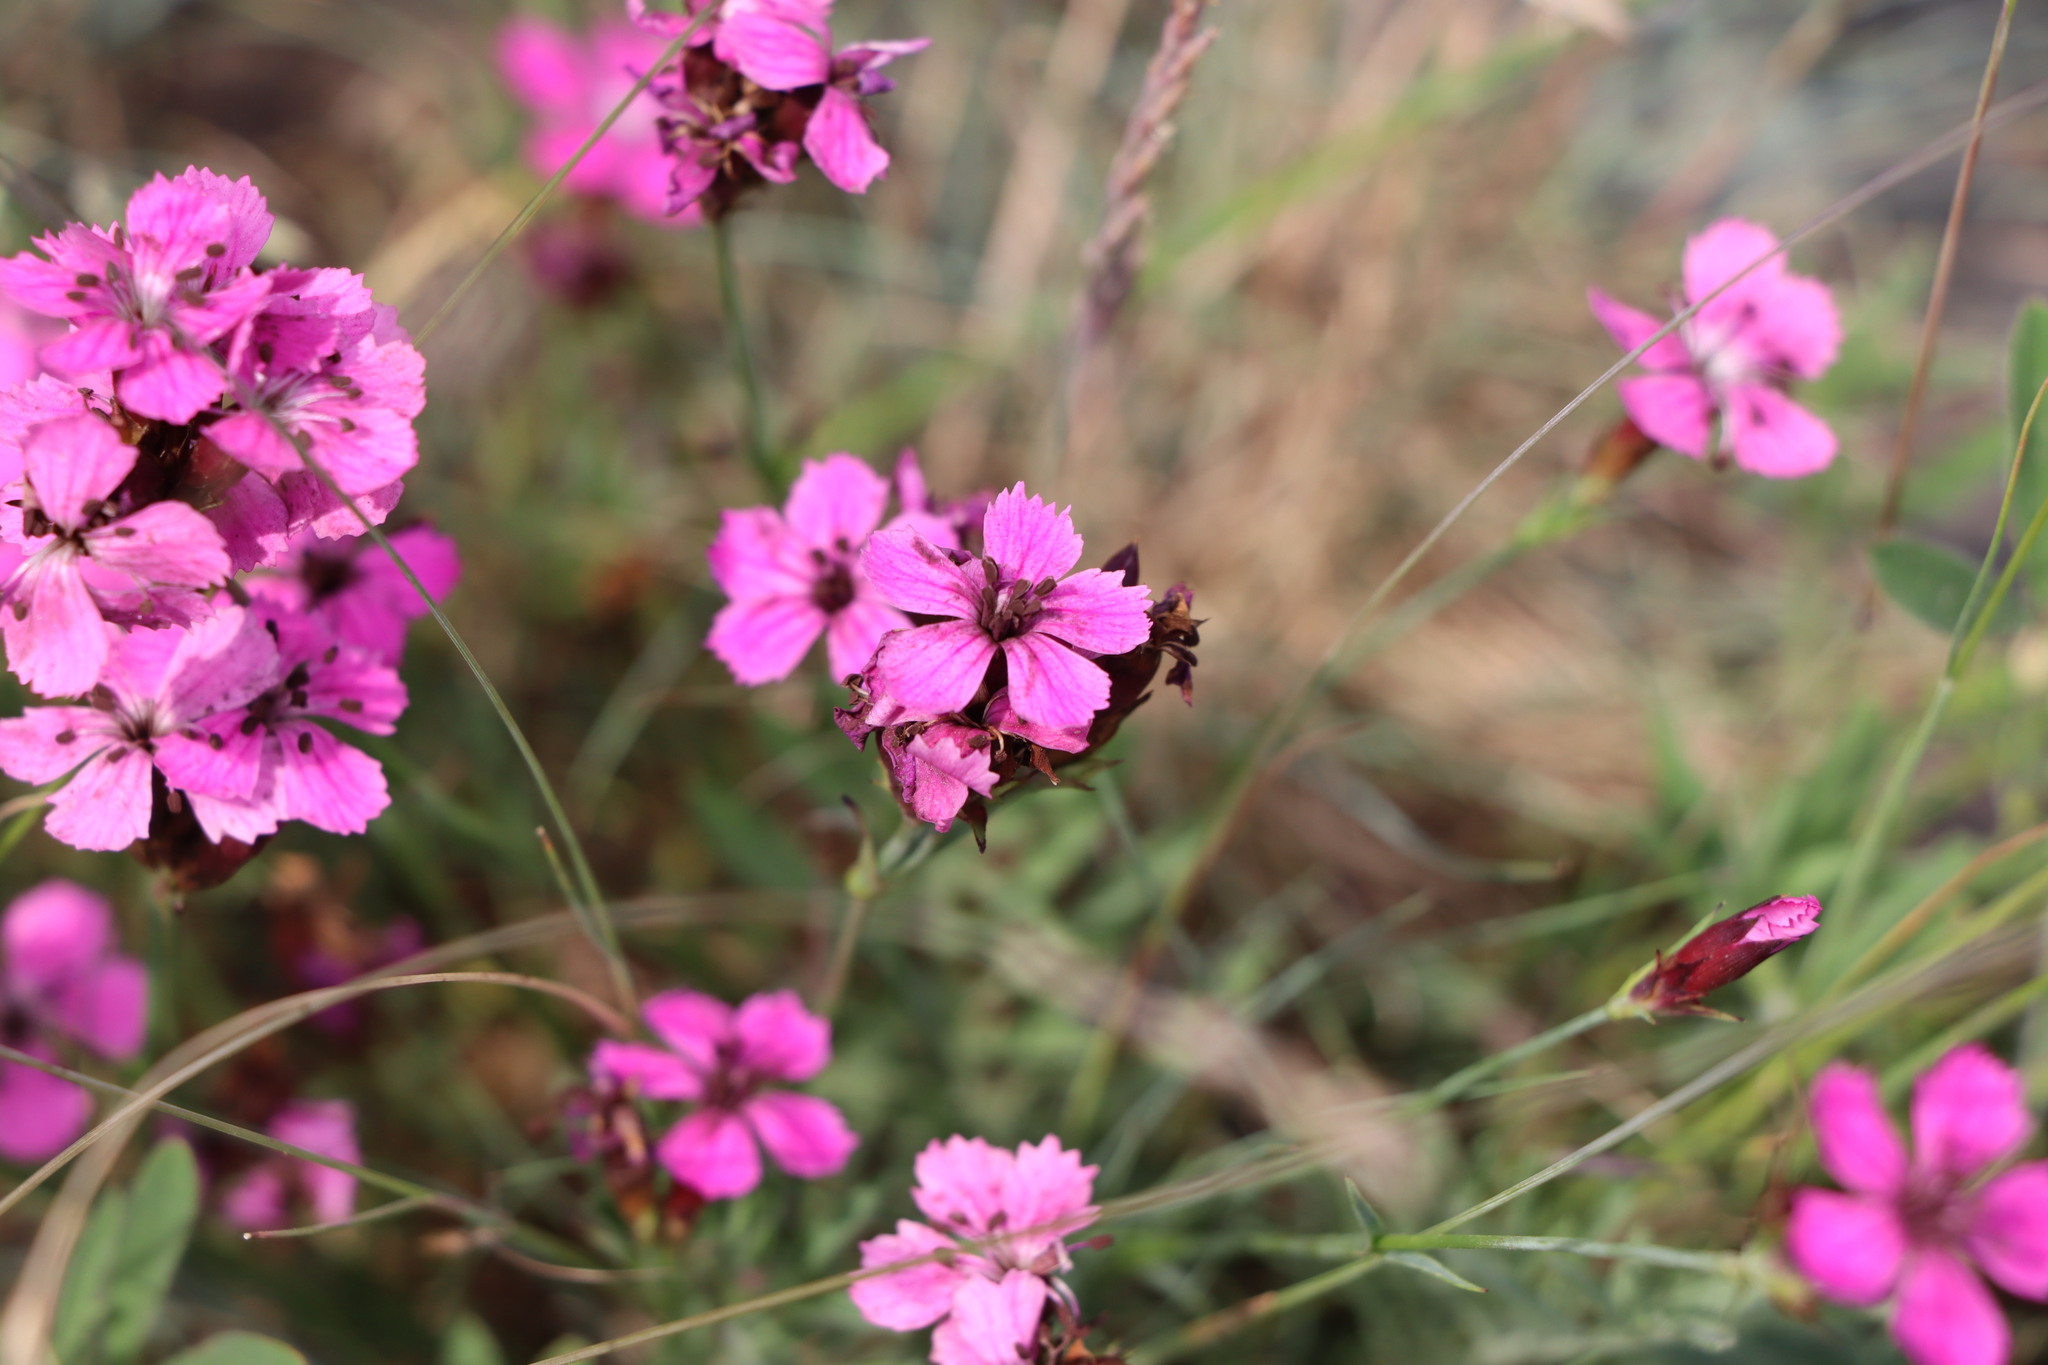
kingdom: Plantae
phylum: Tracheophyta
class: Magnoliopsida
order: Caryophyllales
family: Caryophyllaceae
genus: Dianthus
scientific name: Dianthus carthusianorum
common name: Carthusian pink
